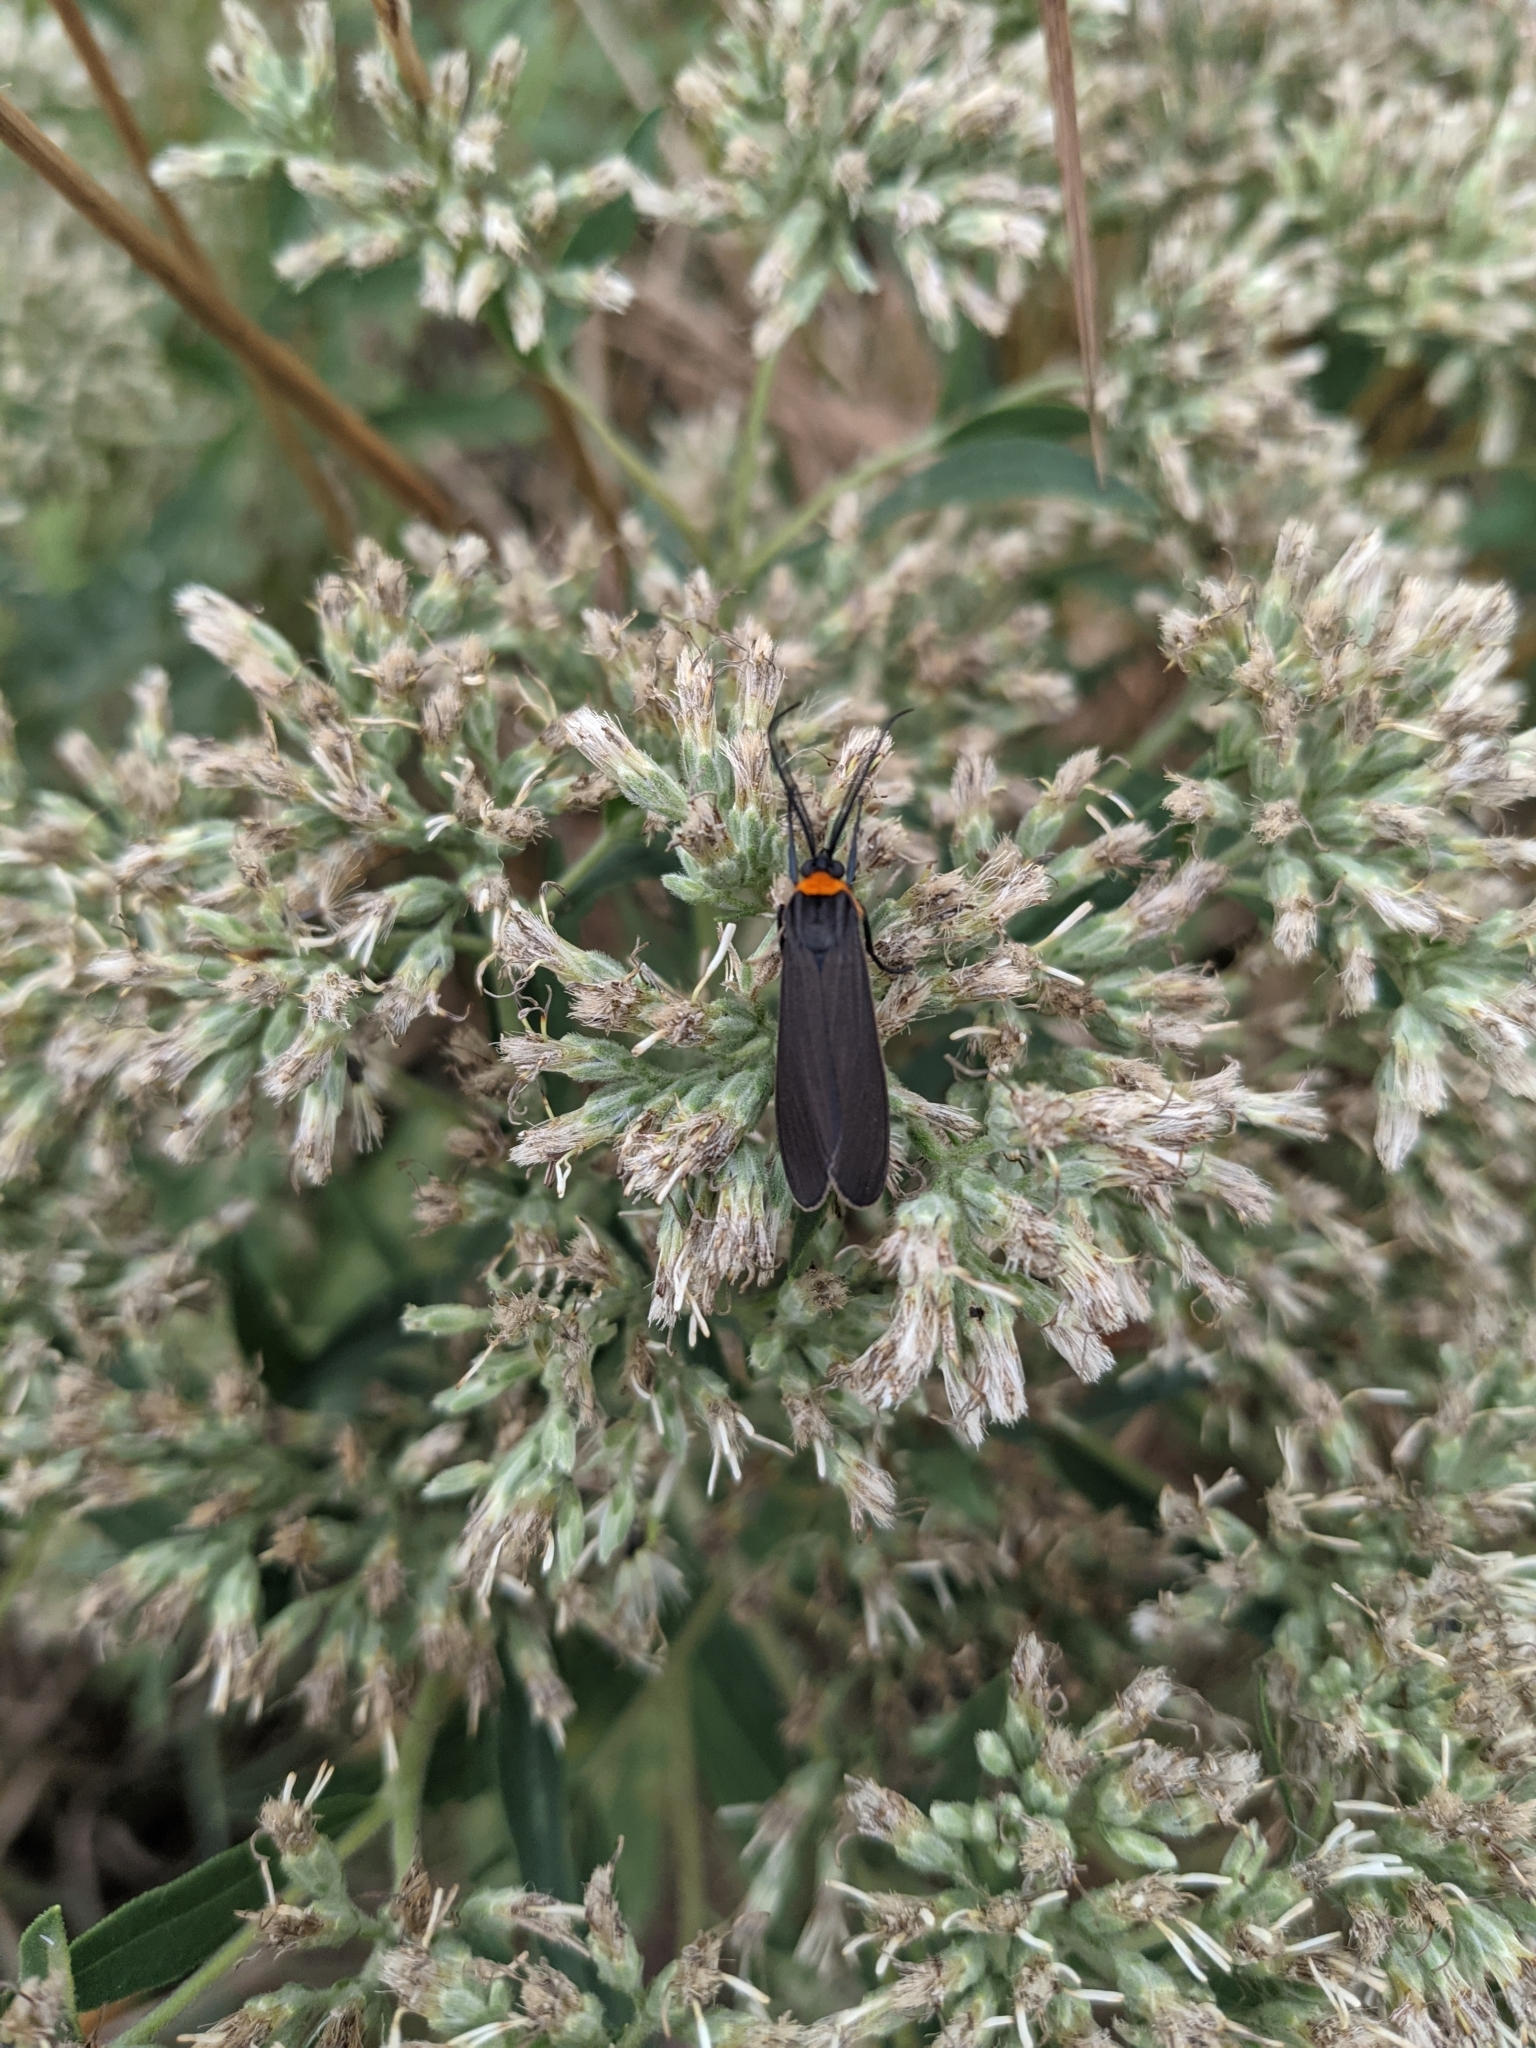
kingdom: Animalia
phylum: Arthropoda
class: Insecta
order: Lepidoptera
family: Erebidae
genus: Cisseps
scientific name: Cisseps fulvicollis
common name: Yellow-collared scape moth
